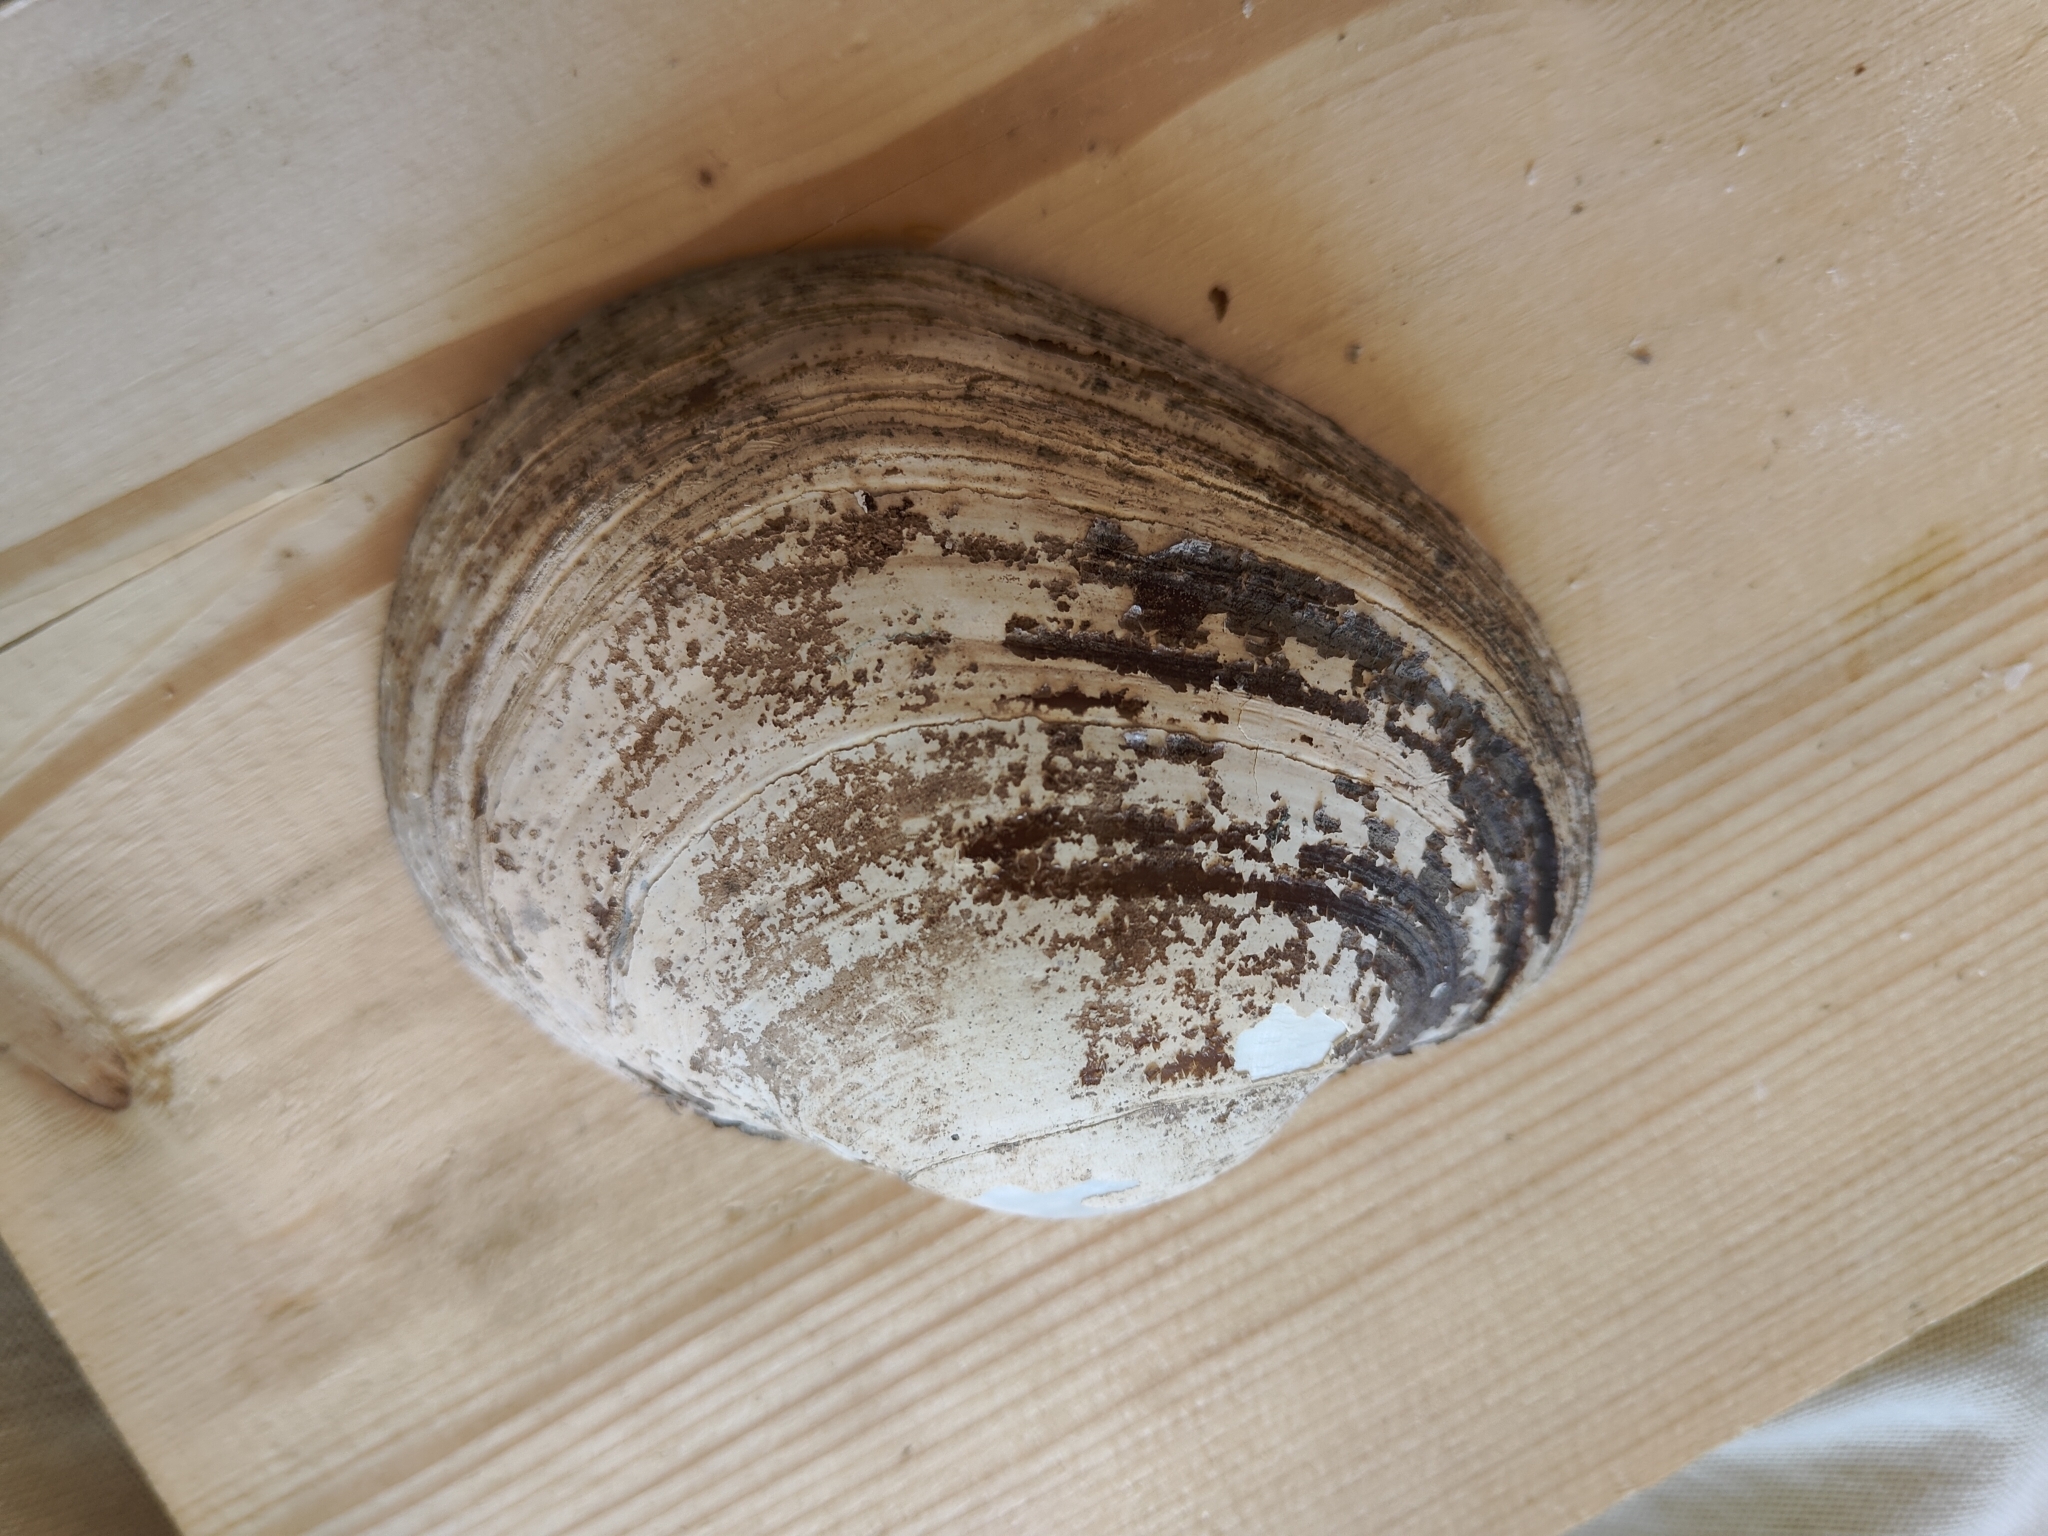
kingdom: Animalia
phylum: Mollusca
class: Bivalvia
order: Unionida
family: Unionidae
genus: Lampsilis
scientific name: Lampsilis cardium
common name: Plain pocketbook
